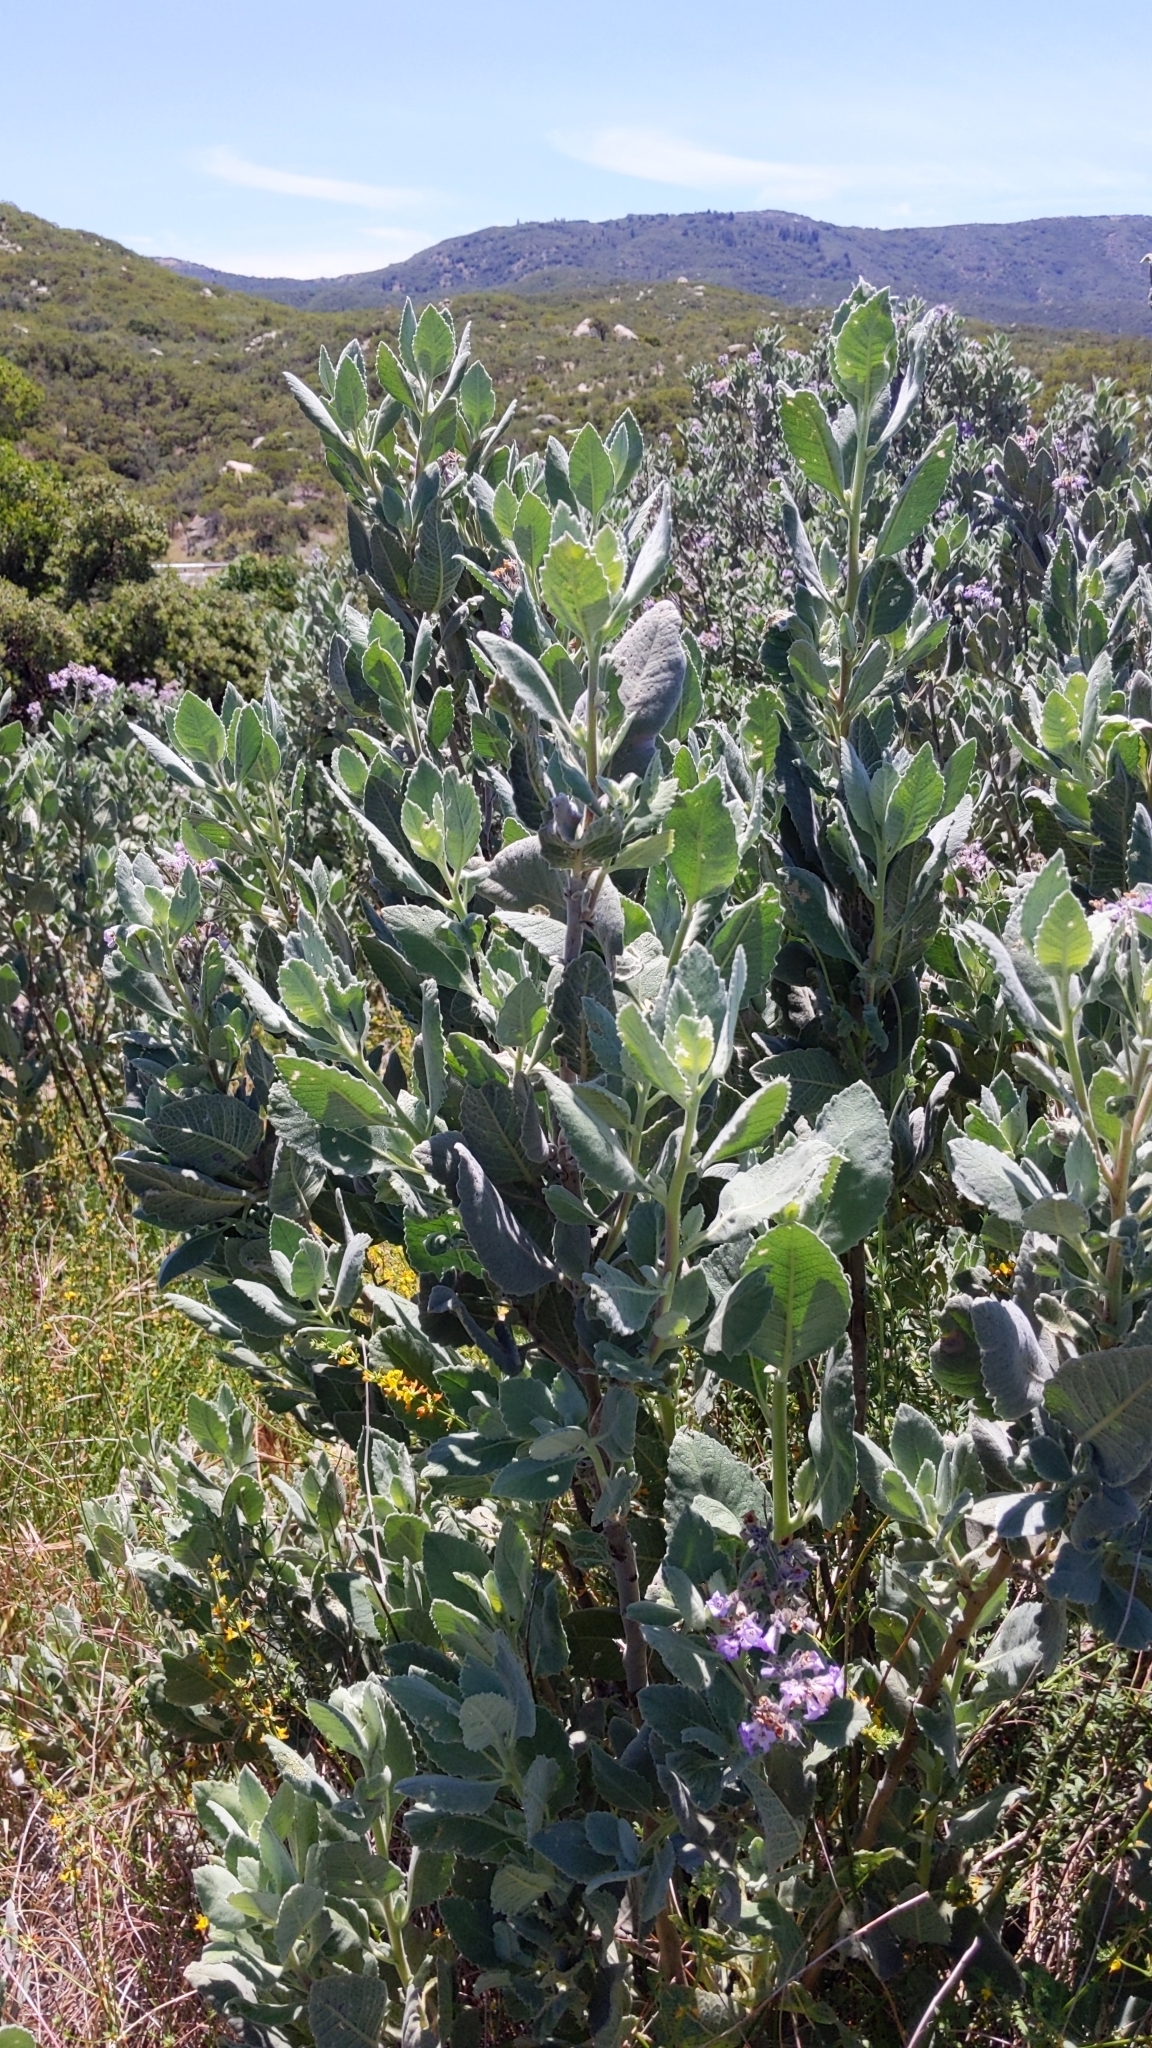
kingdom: Plantae
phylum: Tracheophyta
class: Magnoliopsida
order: Boraginales
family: Namaceae
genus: Eriodictyon
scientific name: Eriodictyon crassifolium
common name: Thick-leaf yerba-santa
